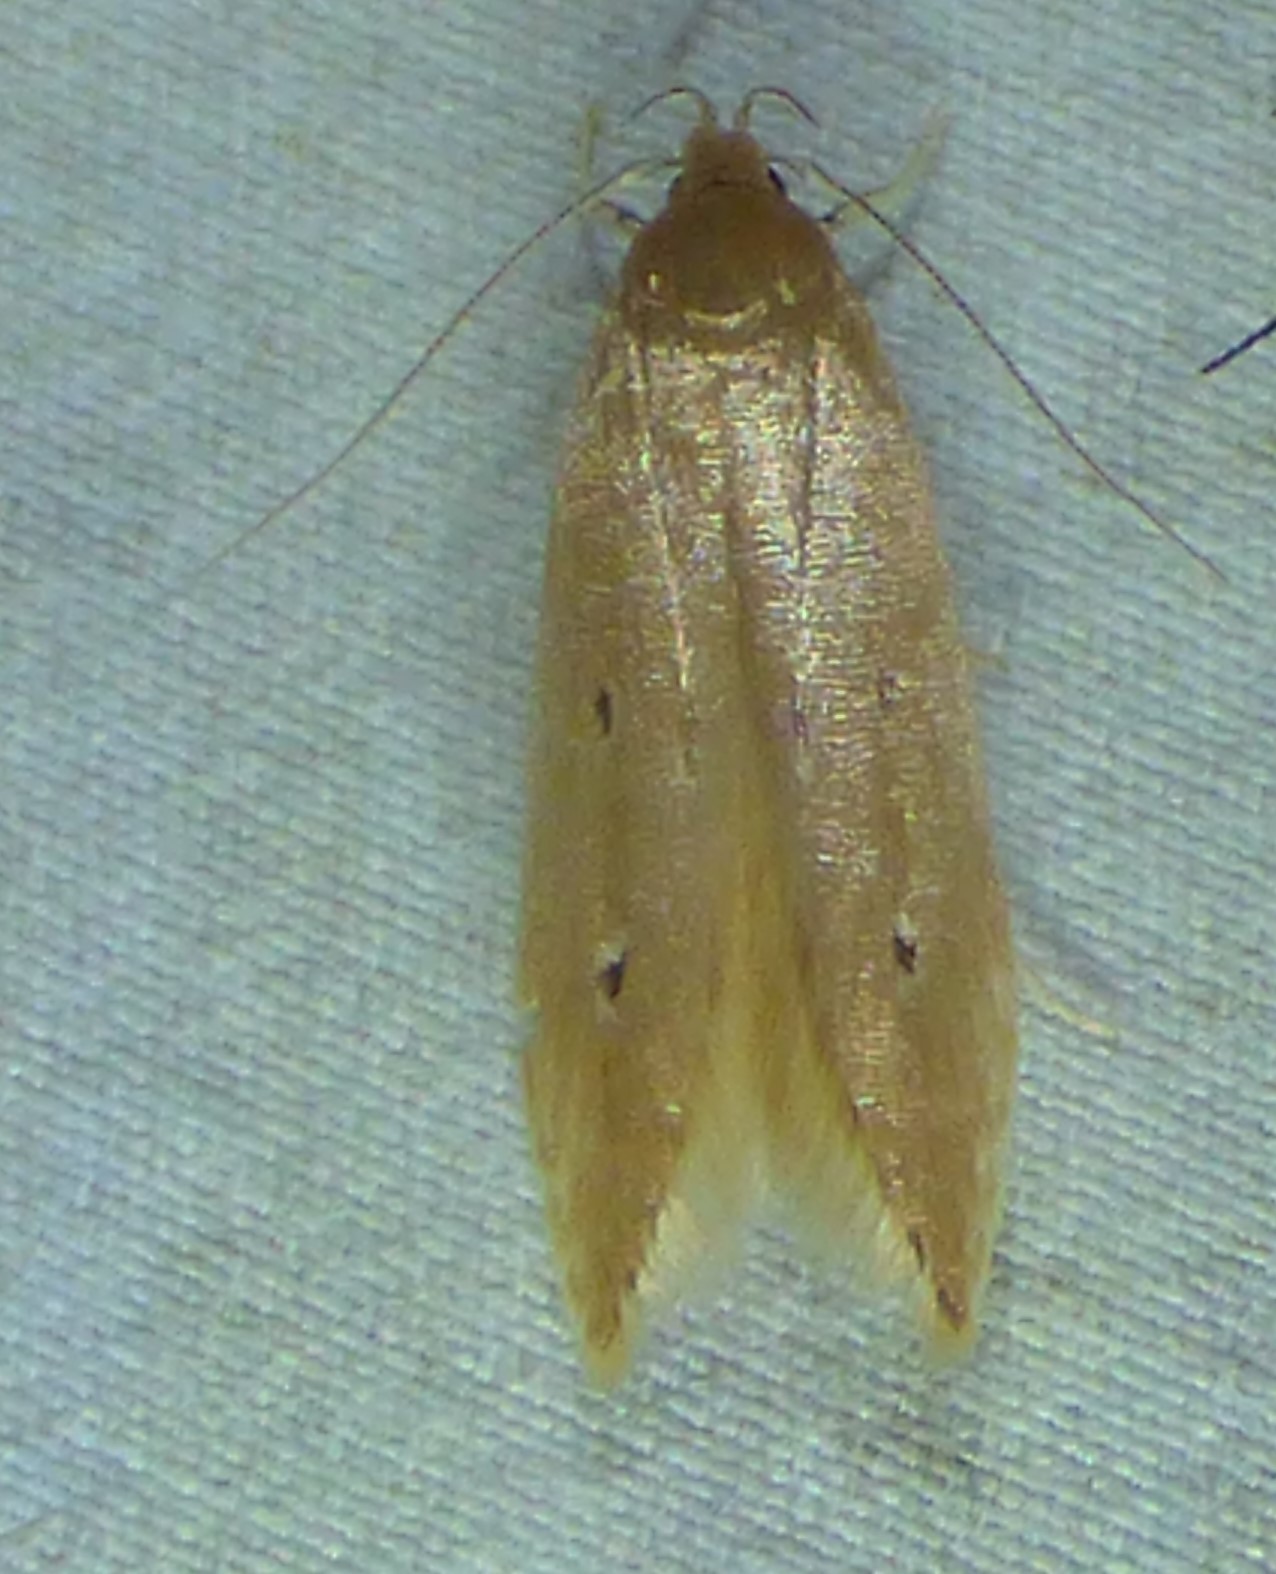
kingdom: Animalia
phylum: Arthropoda
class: Insecta
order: Lepidoptera
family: Cosmopterigidae
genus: Limnaecia
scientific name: Limnaecia phragmitella
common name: Bulrush cosmet
